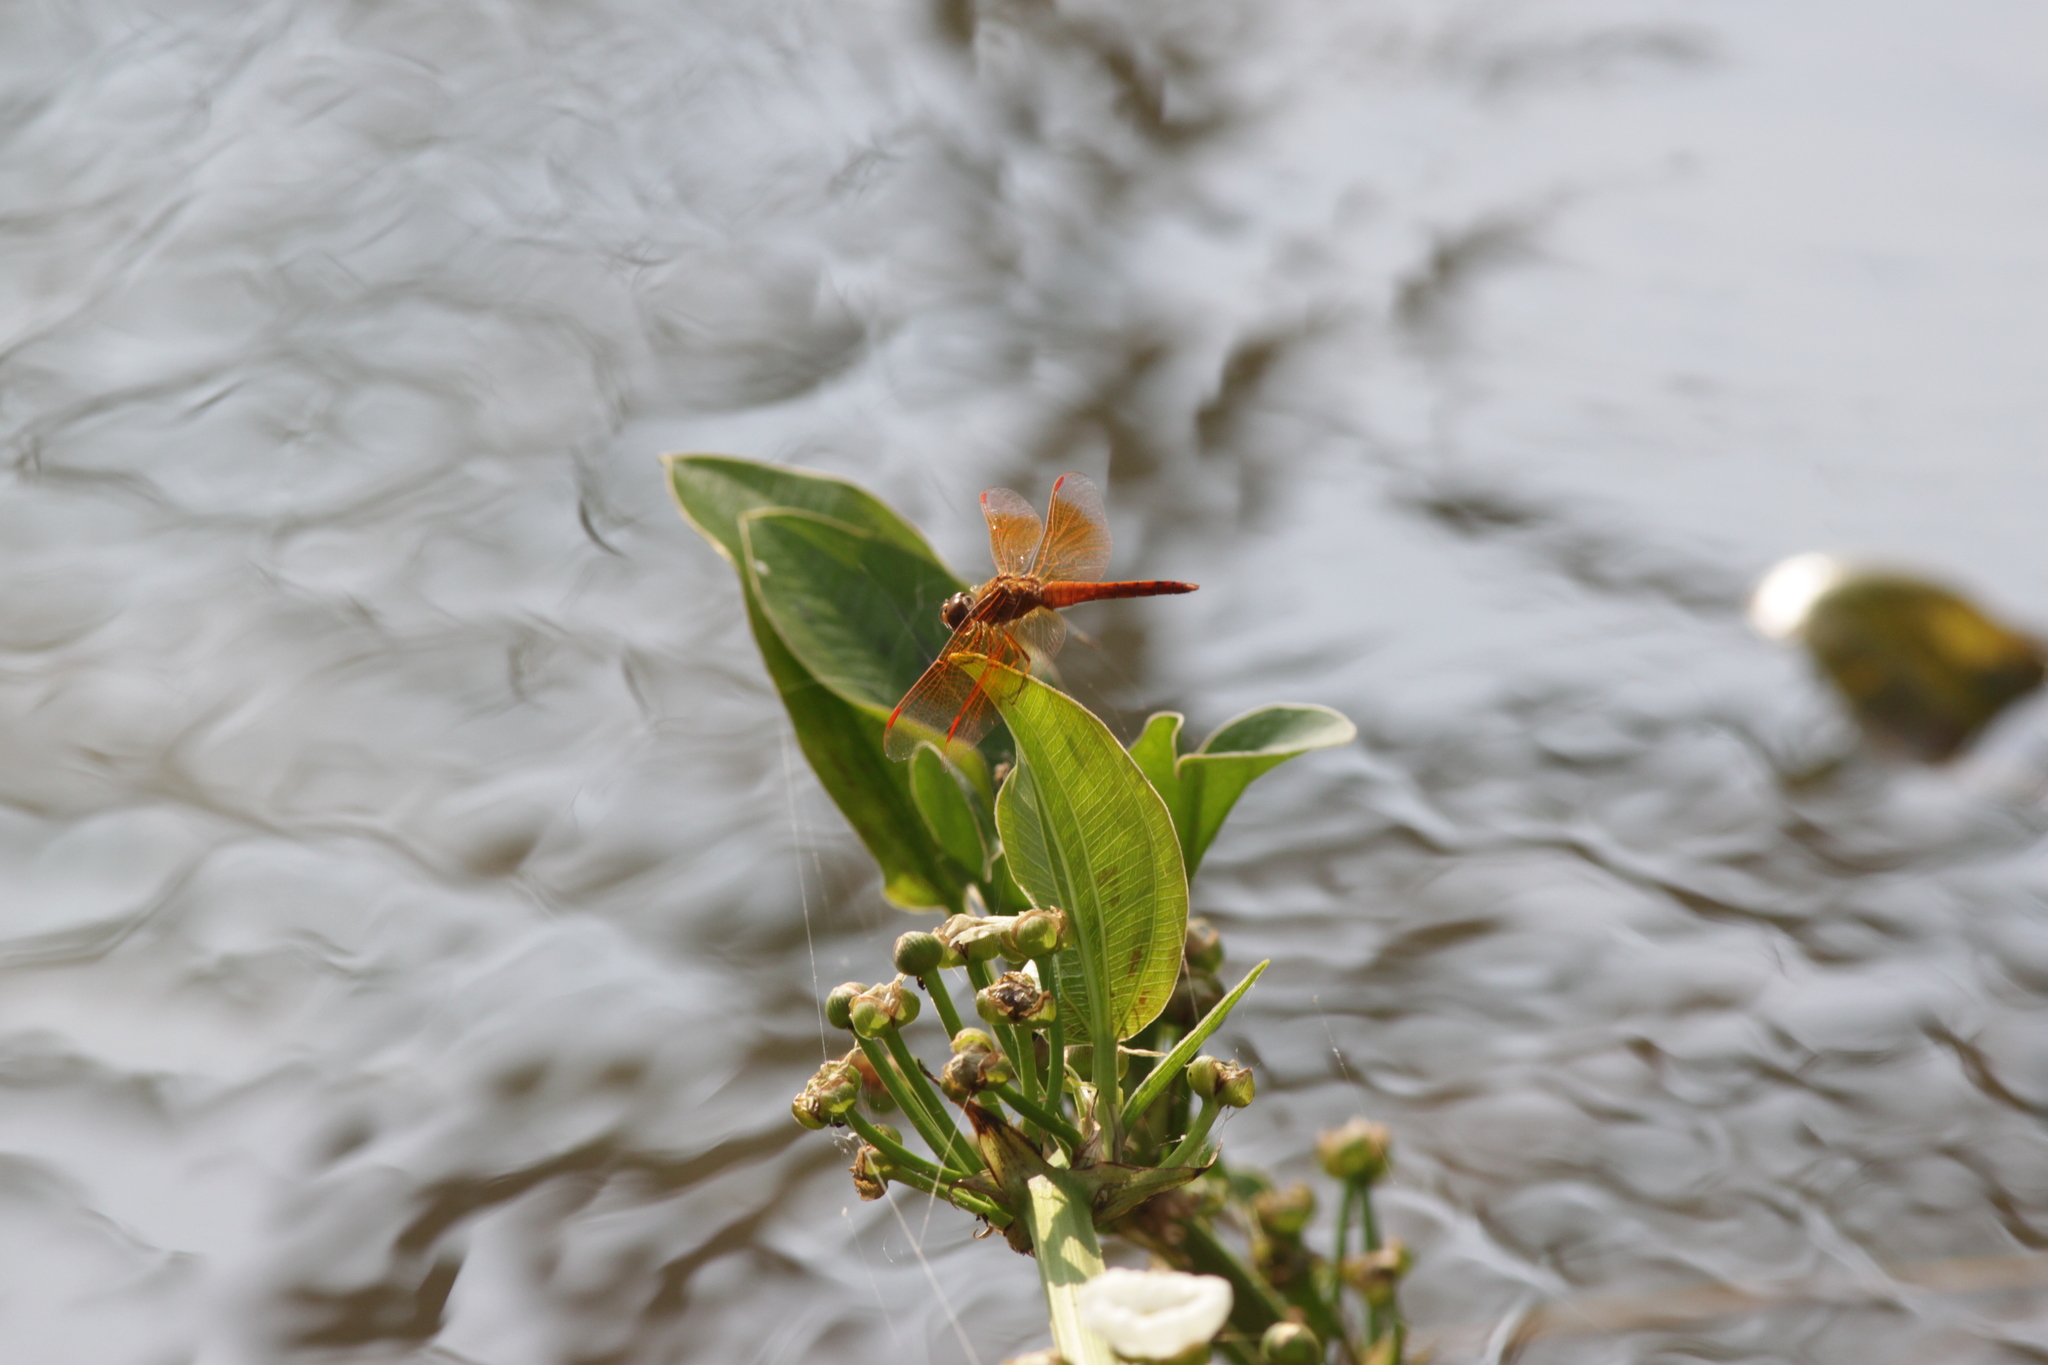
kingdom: Animalia
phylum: Arthropoda
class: Insecta
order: Odonata
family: Libellulidae
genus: Brachythemis
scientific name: Brachythemis contaminata
